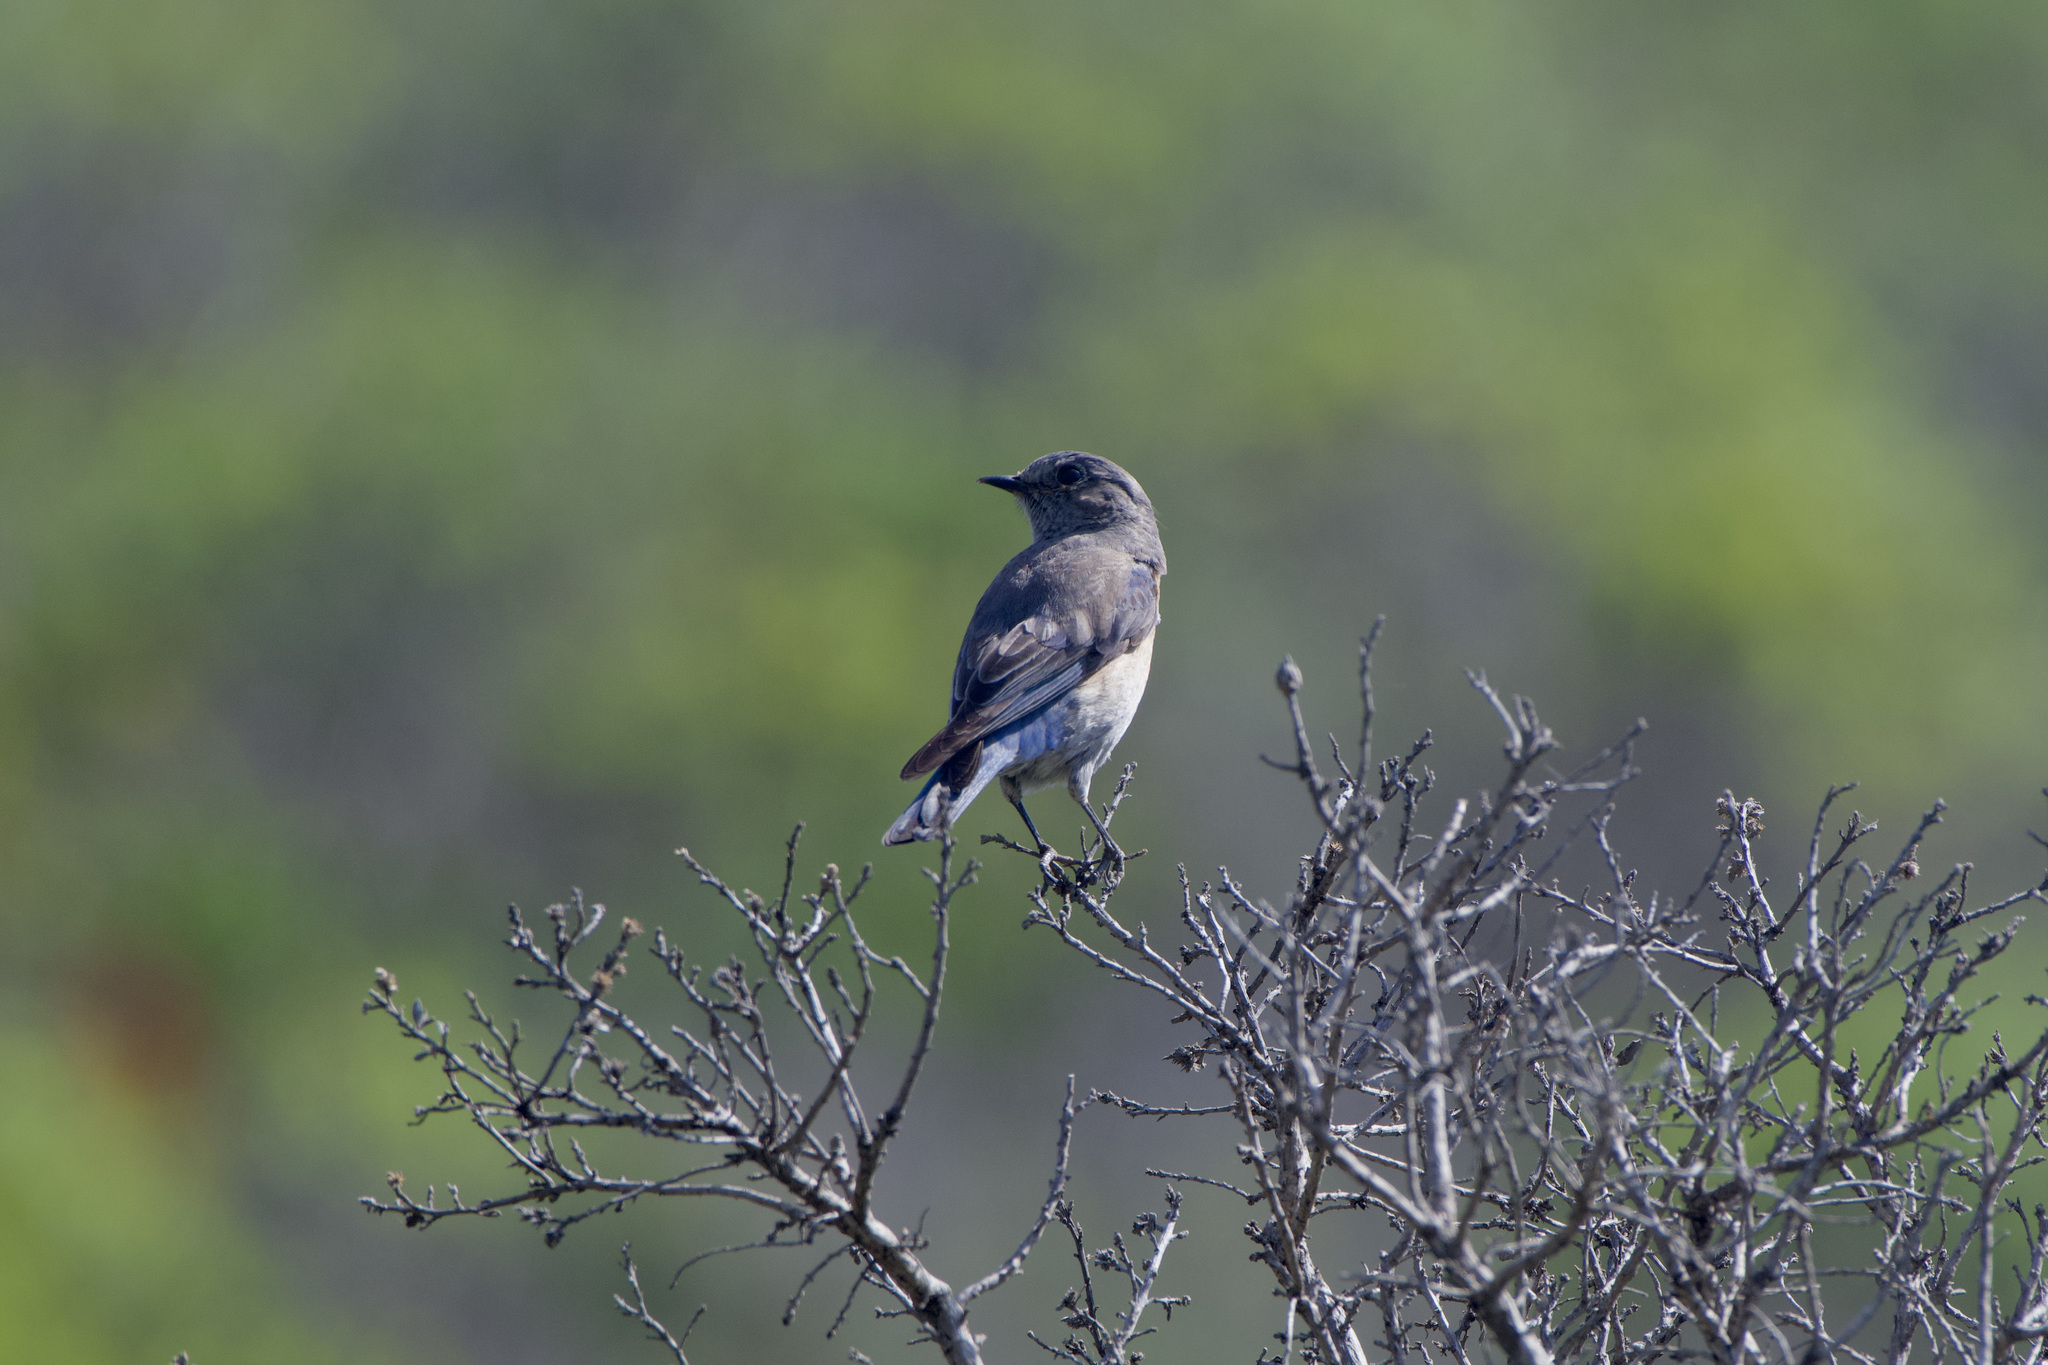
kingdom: Animalia
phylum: Chordata
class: Aves
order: Passeriformes
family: Turdidae
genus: Sialia
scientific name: Sialia mexicana
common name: Western bluebird
